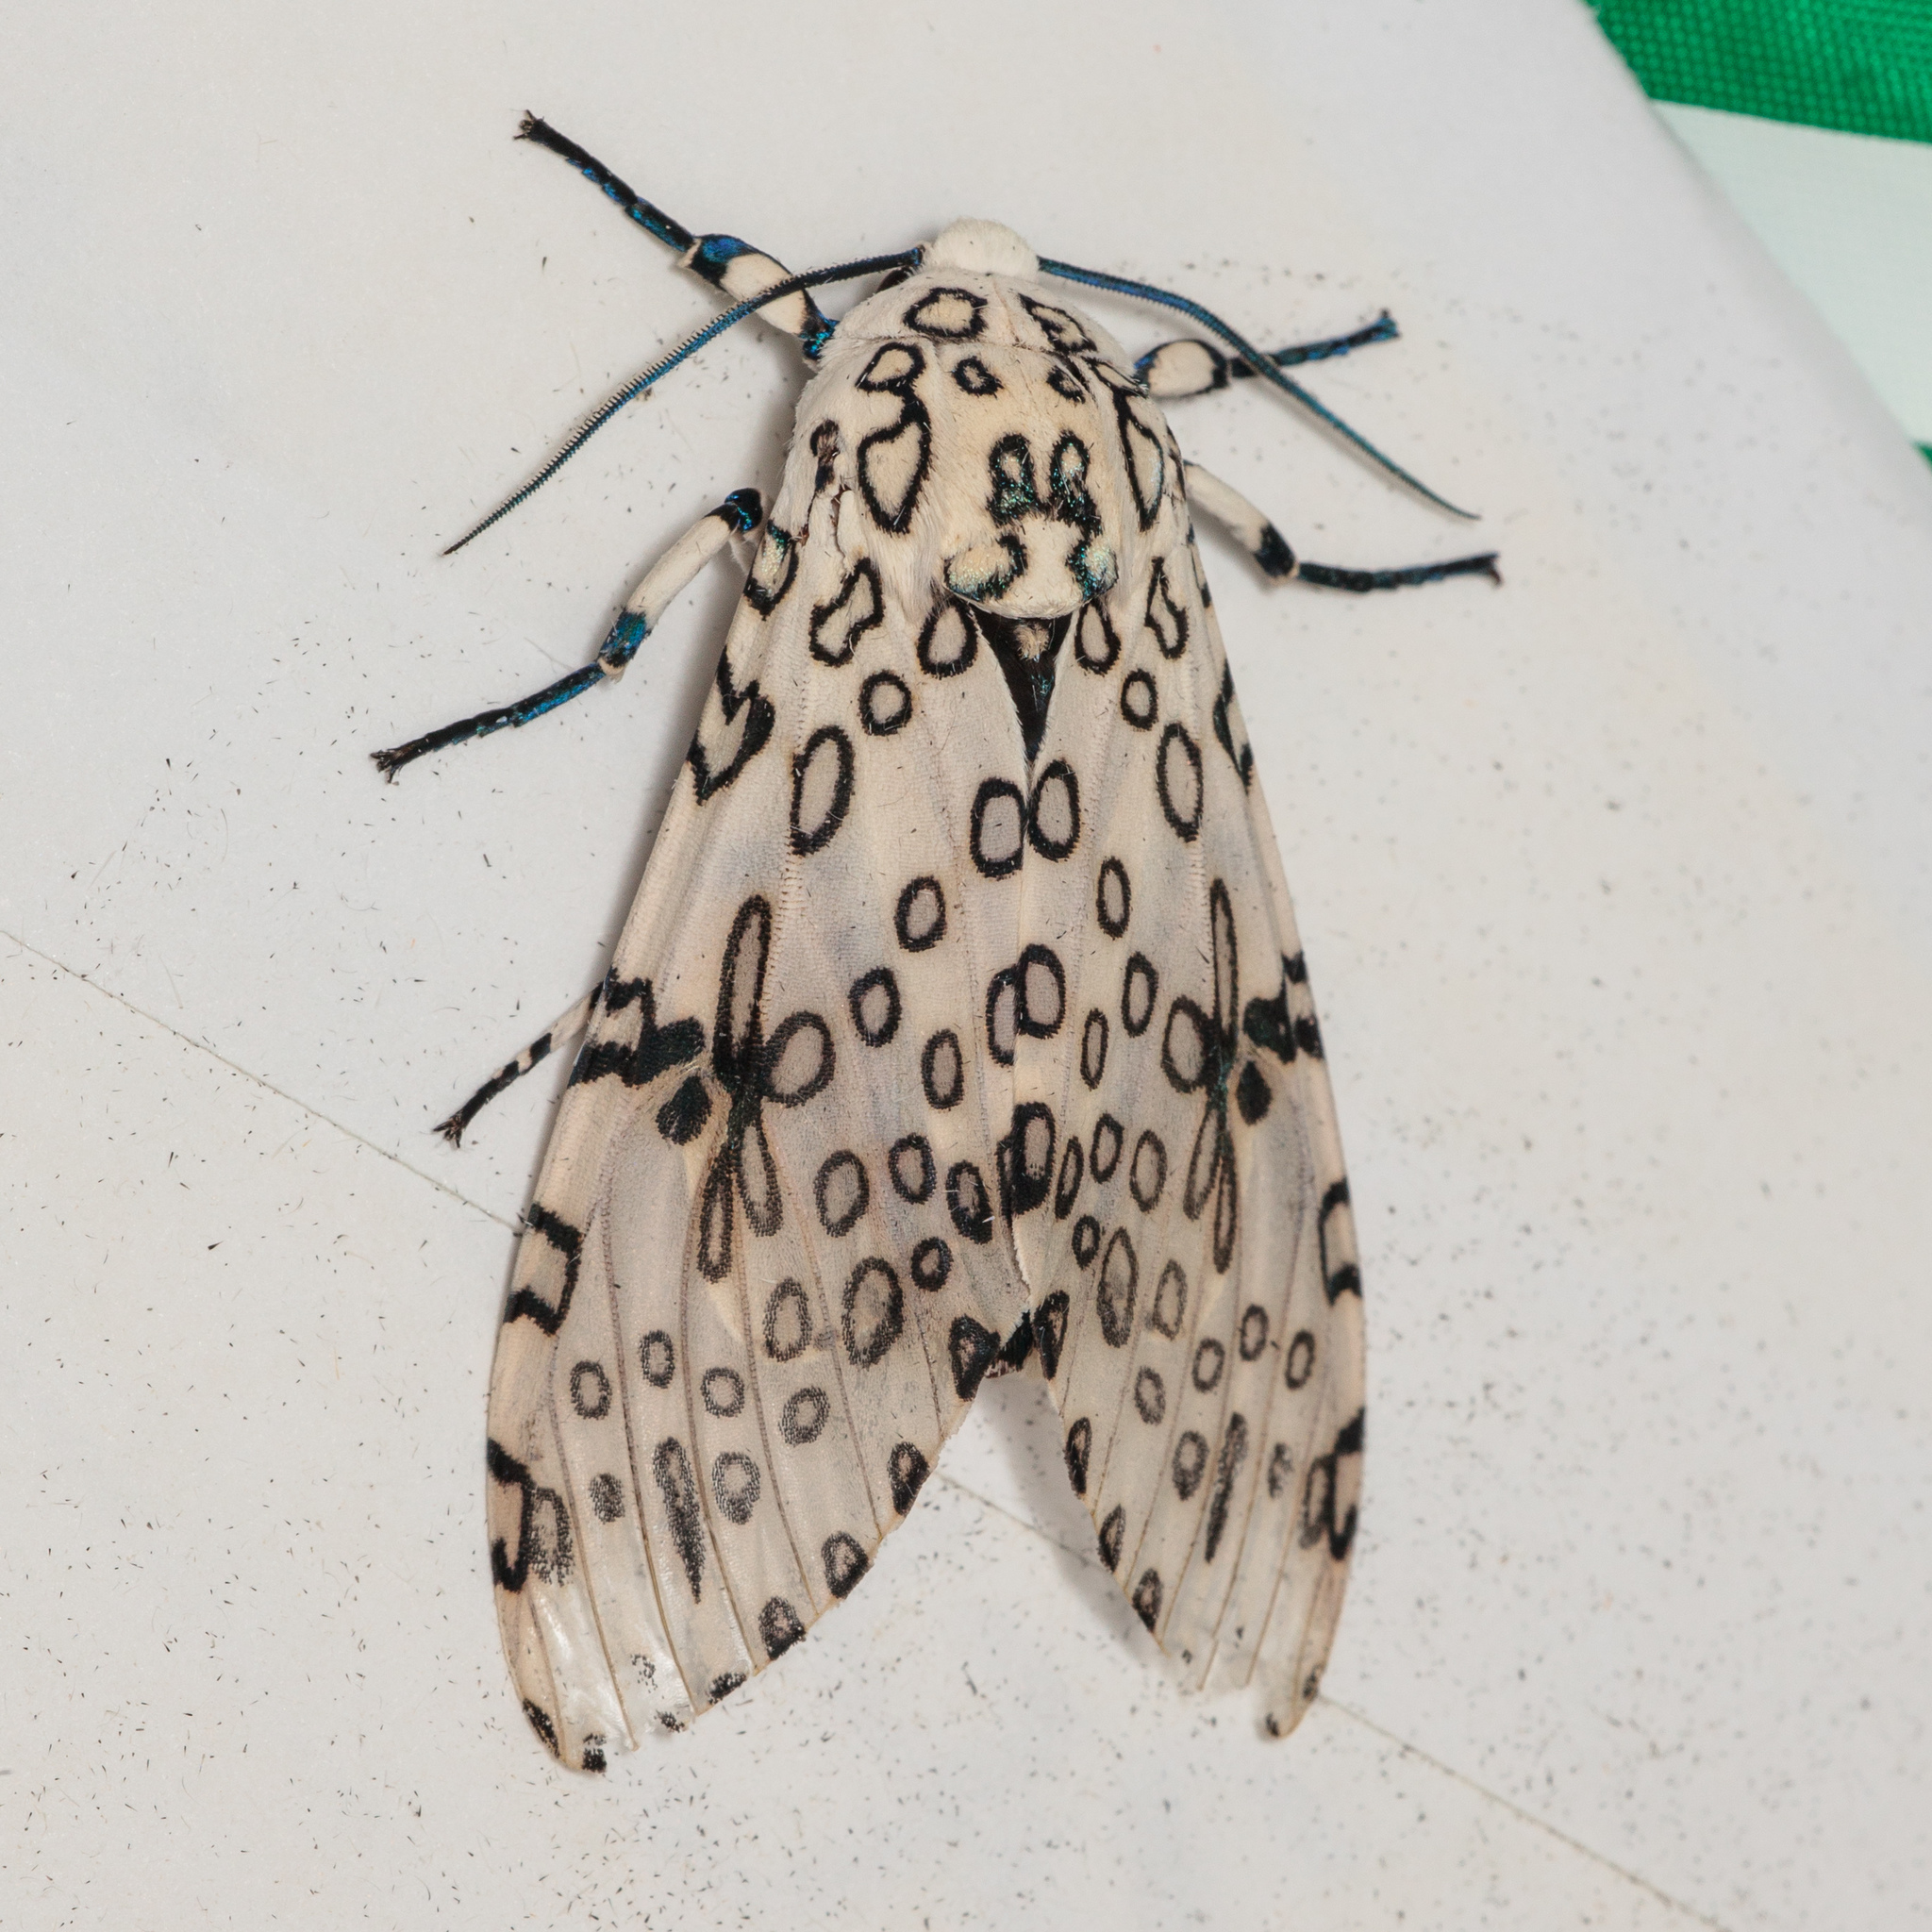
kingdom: Animalia
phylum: Arthropoda
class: Insecta
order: Lepidoptera
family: Erebidae
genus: Hypercompe
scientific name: Hypercompe scribonia
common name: Giant leopard moth
